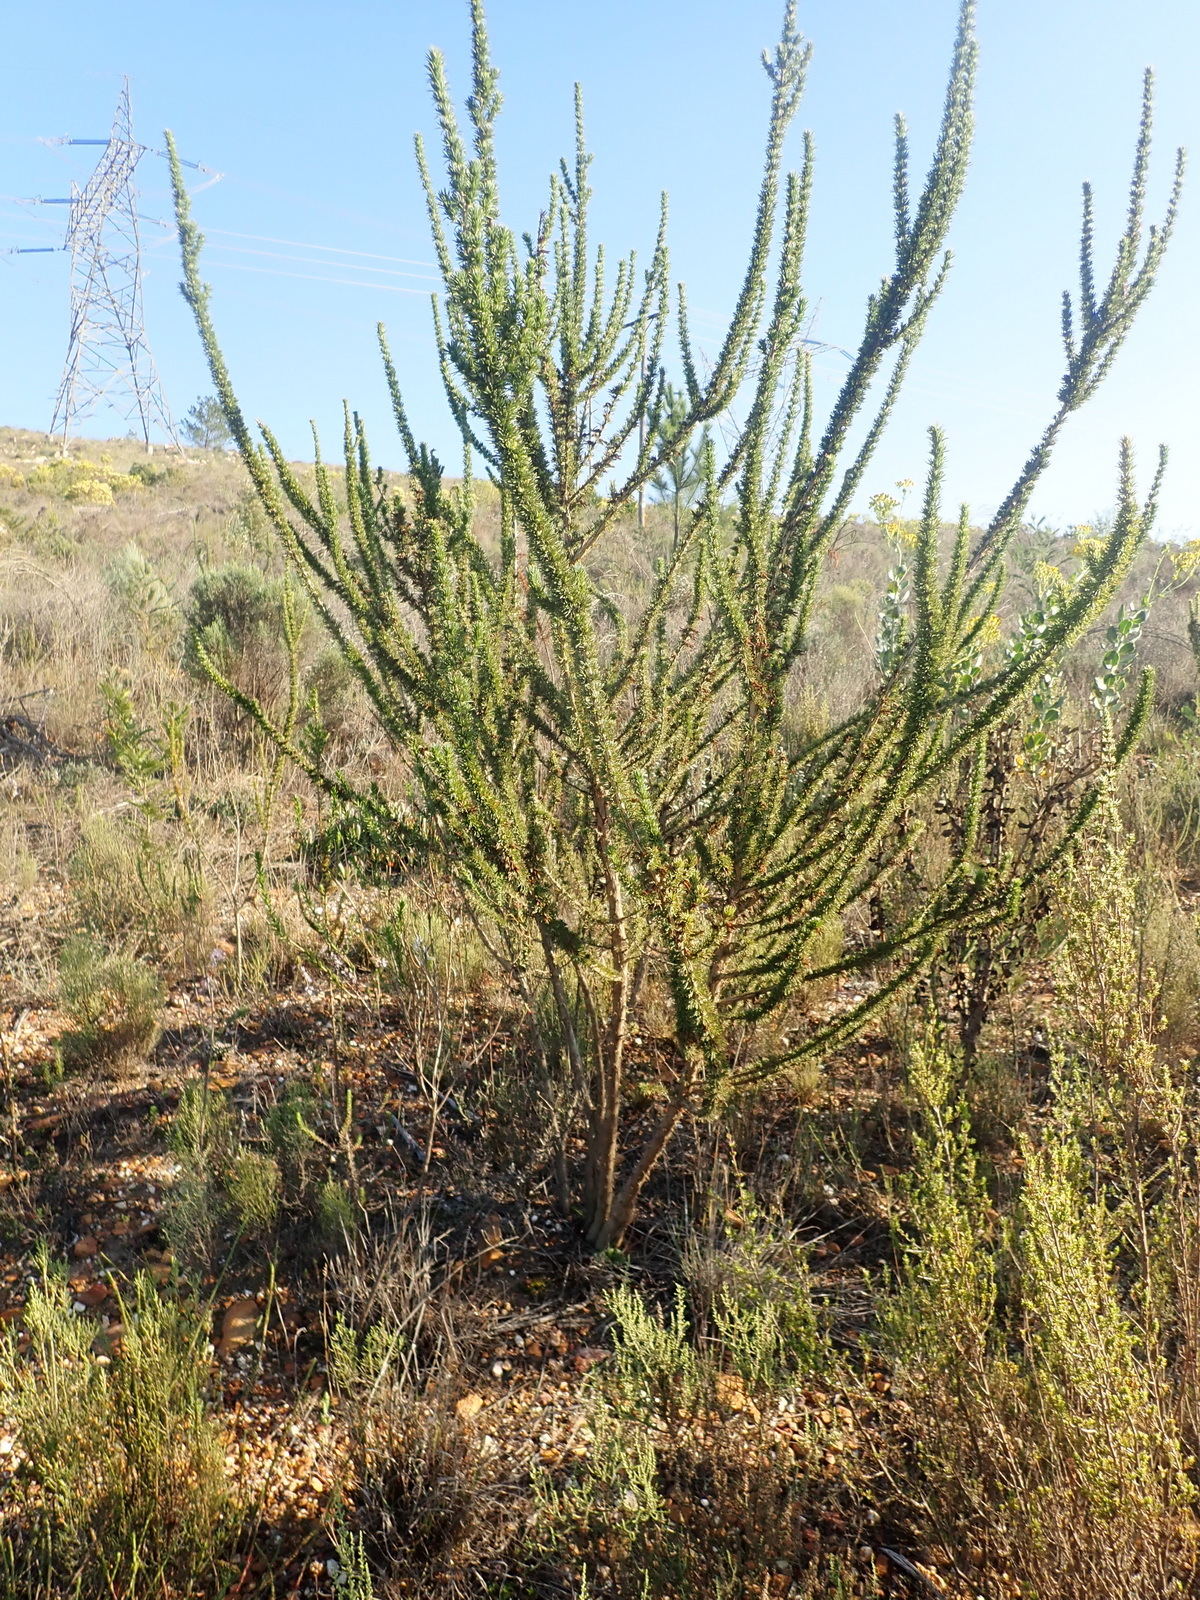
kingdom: Plantae
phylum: Tracheophyta
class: Magnoliopsida
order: Fabales
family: Fabaceae
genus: Aspalathus
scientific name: Aspalathus sceptrumaureum
